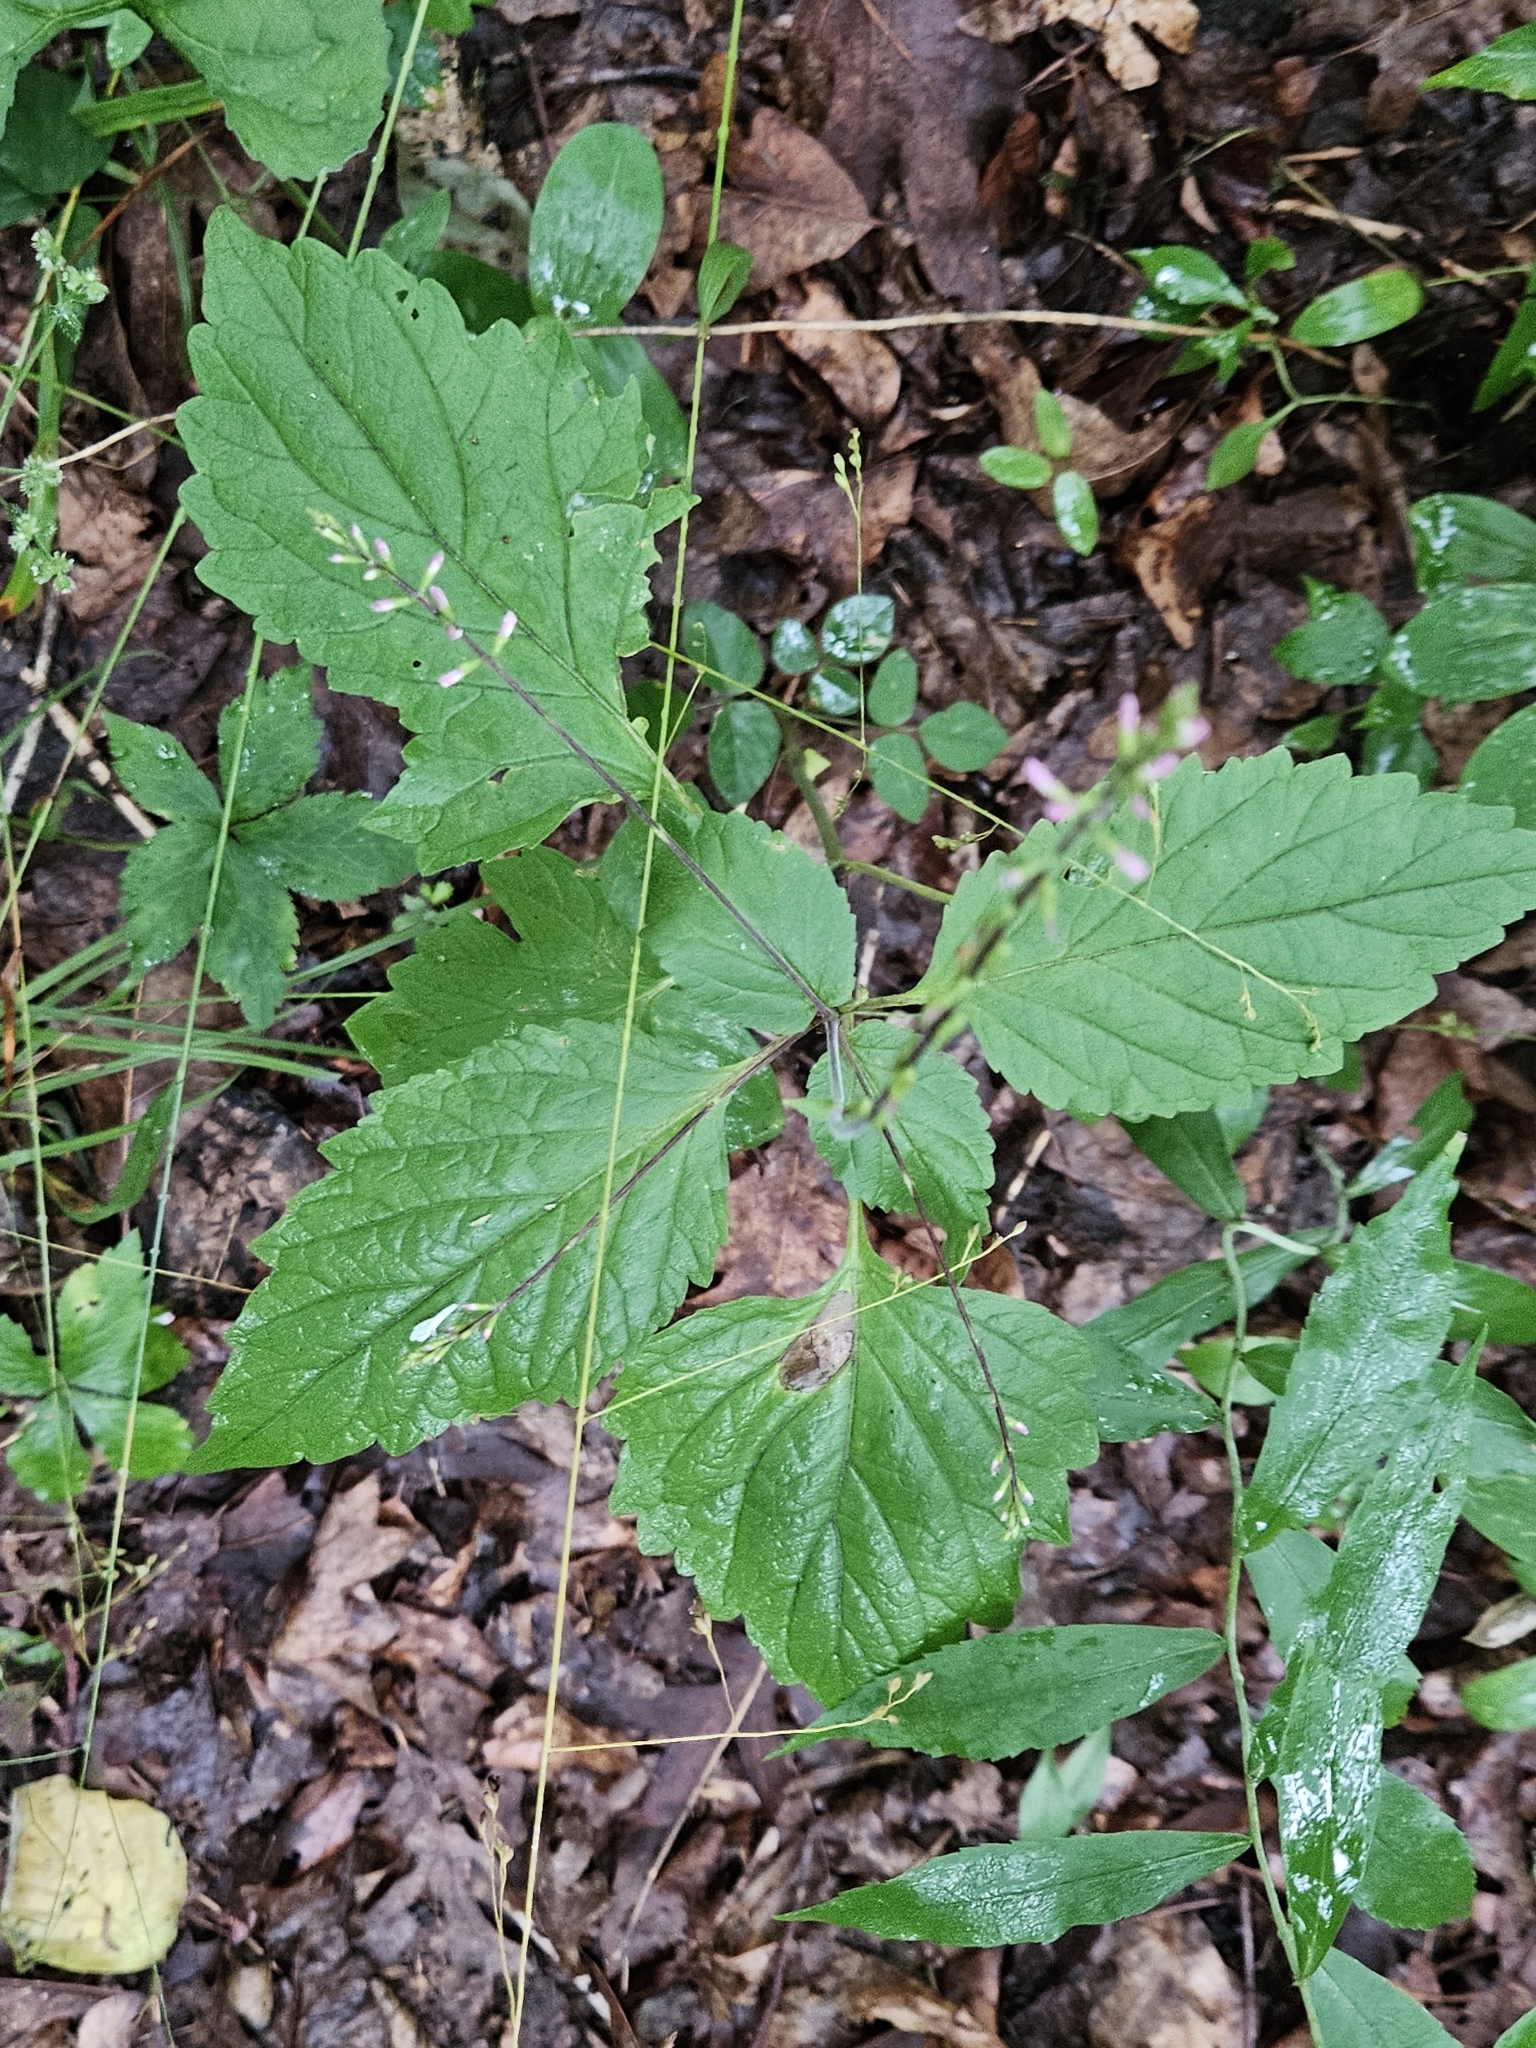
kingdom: Plantae
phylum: Tracheophyta
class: Magnoliopsida
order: Lamiales
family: Phrymaceae
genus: Phryma
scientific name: Phryma leptostachya
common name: American lopseed
